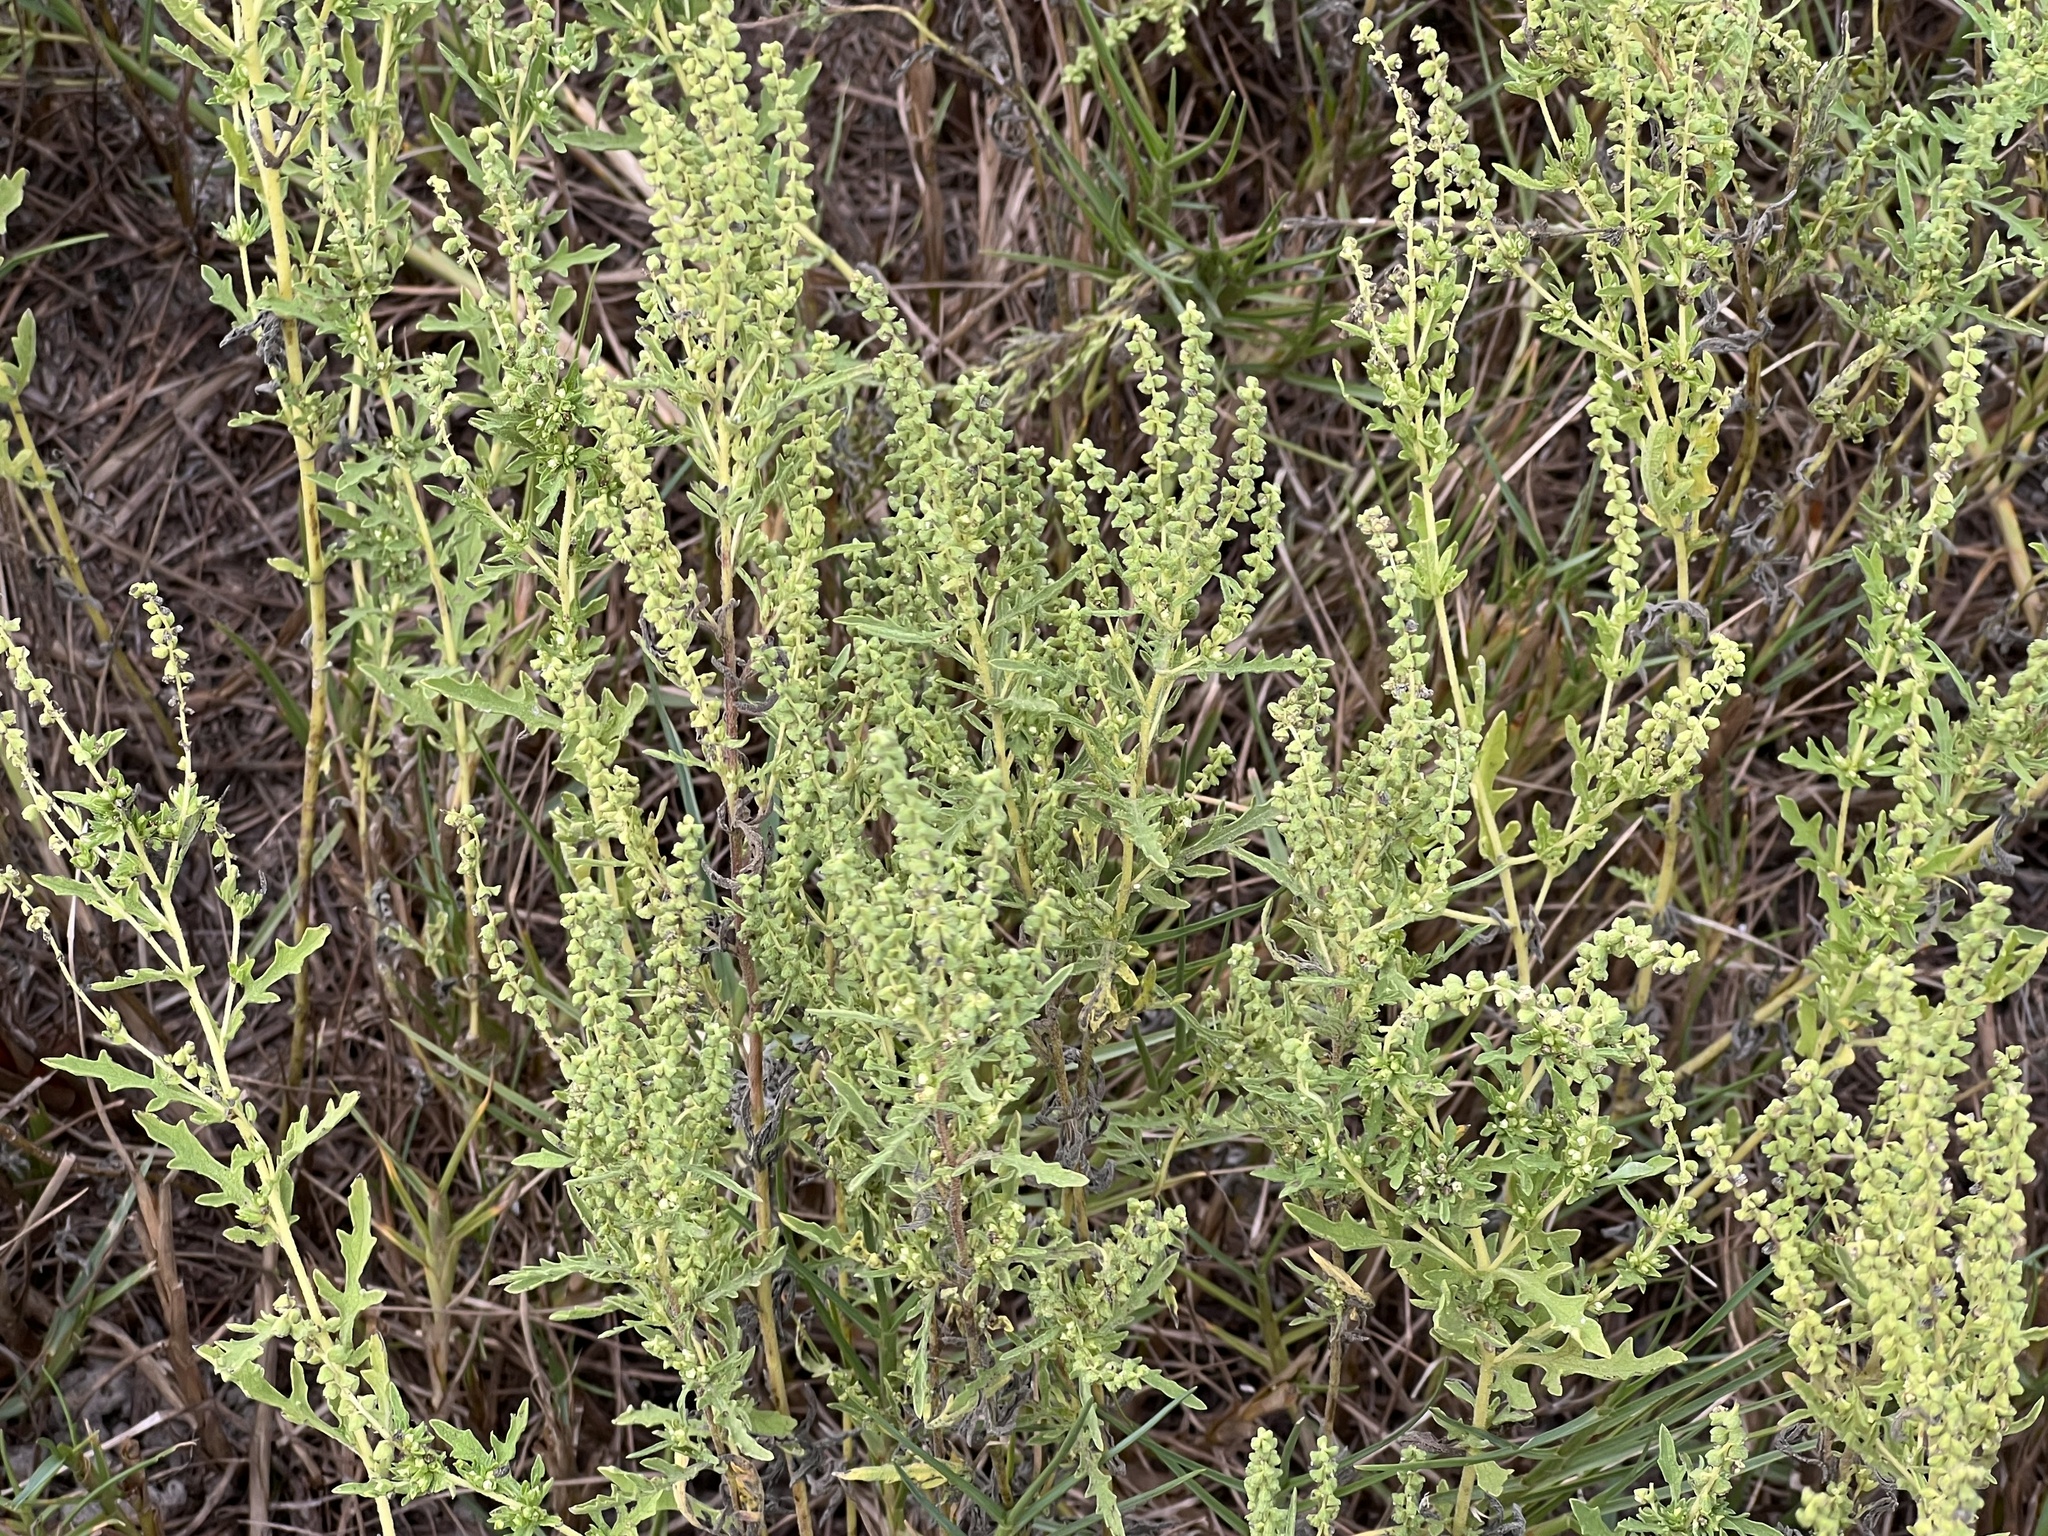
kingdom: Plantae
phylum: Tracheophyta
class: Magnoliopsida
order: Asterales
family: Asteraceae
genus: Ambrosia
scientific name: Ambrosia psilostachya
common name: Perennial ragweed
